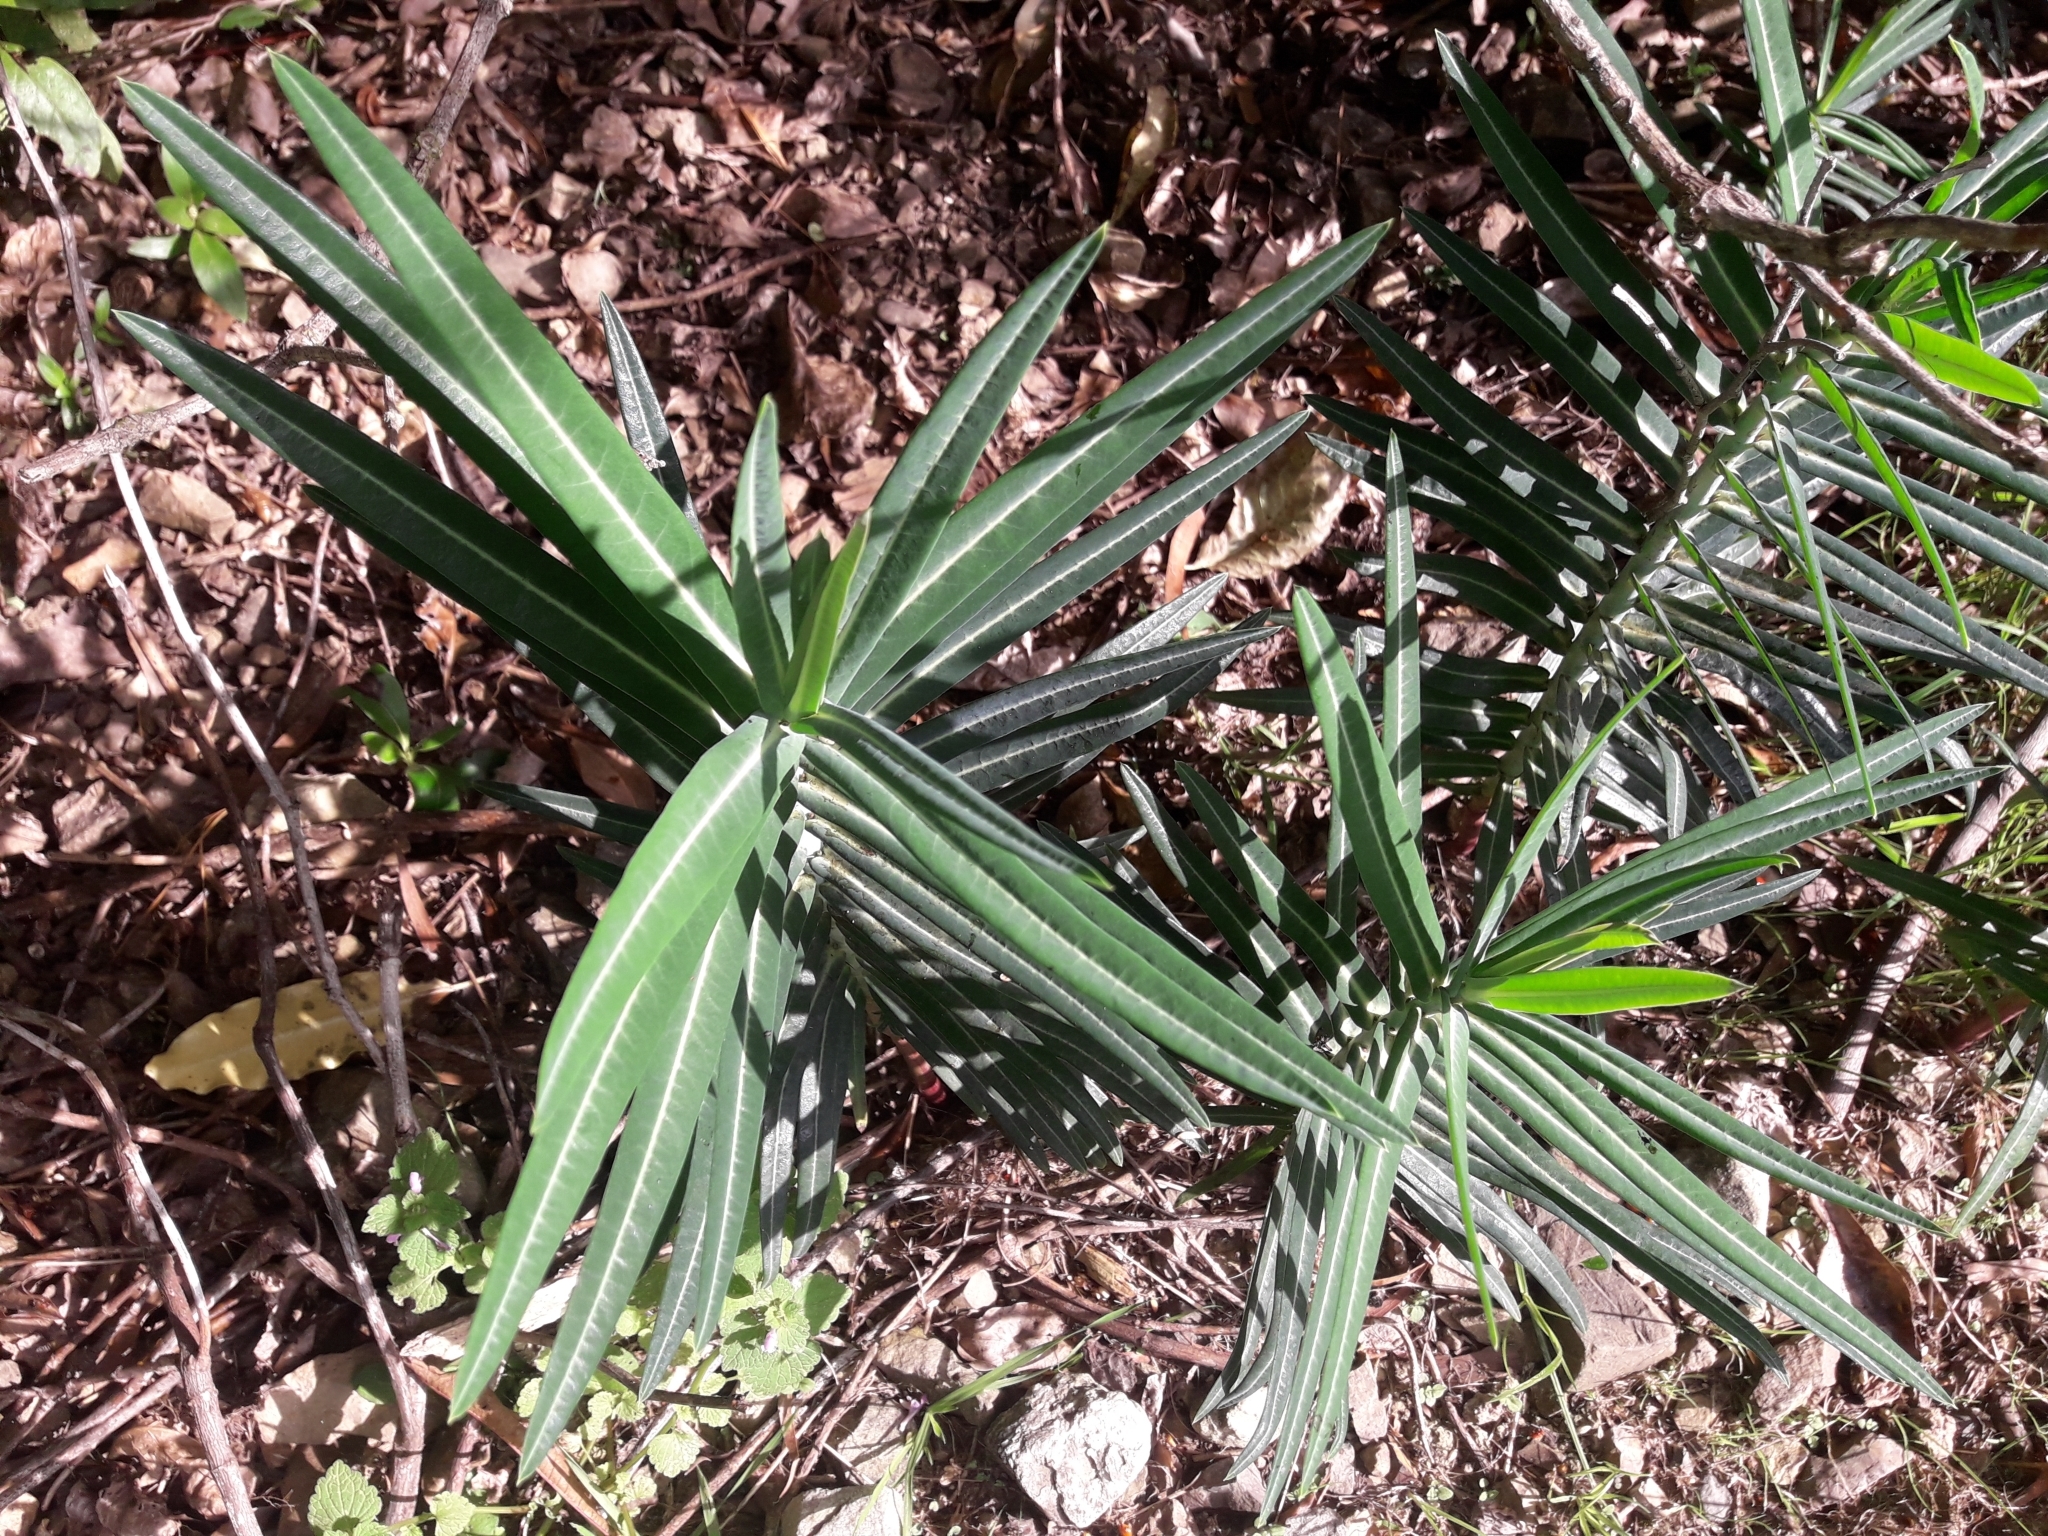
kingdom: Plantae
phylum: Tracheophyta
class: Magnoliopsida
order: Malpighiales
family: Euphorbiaceae
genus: Euphorbia
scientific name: Euphorbia lathyris
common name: Caper spurge
